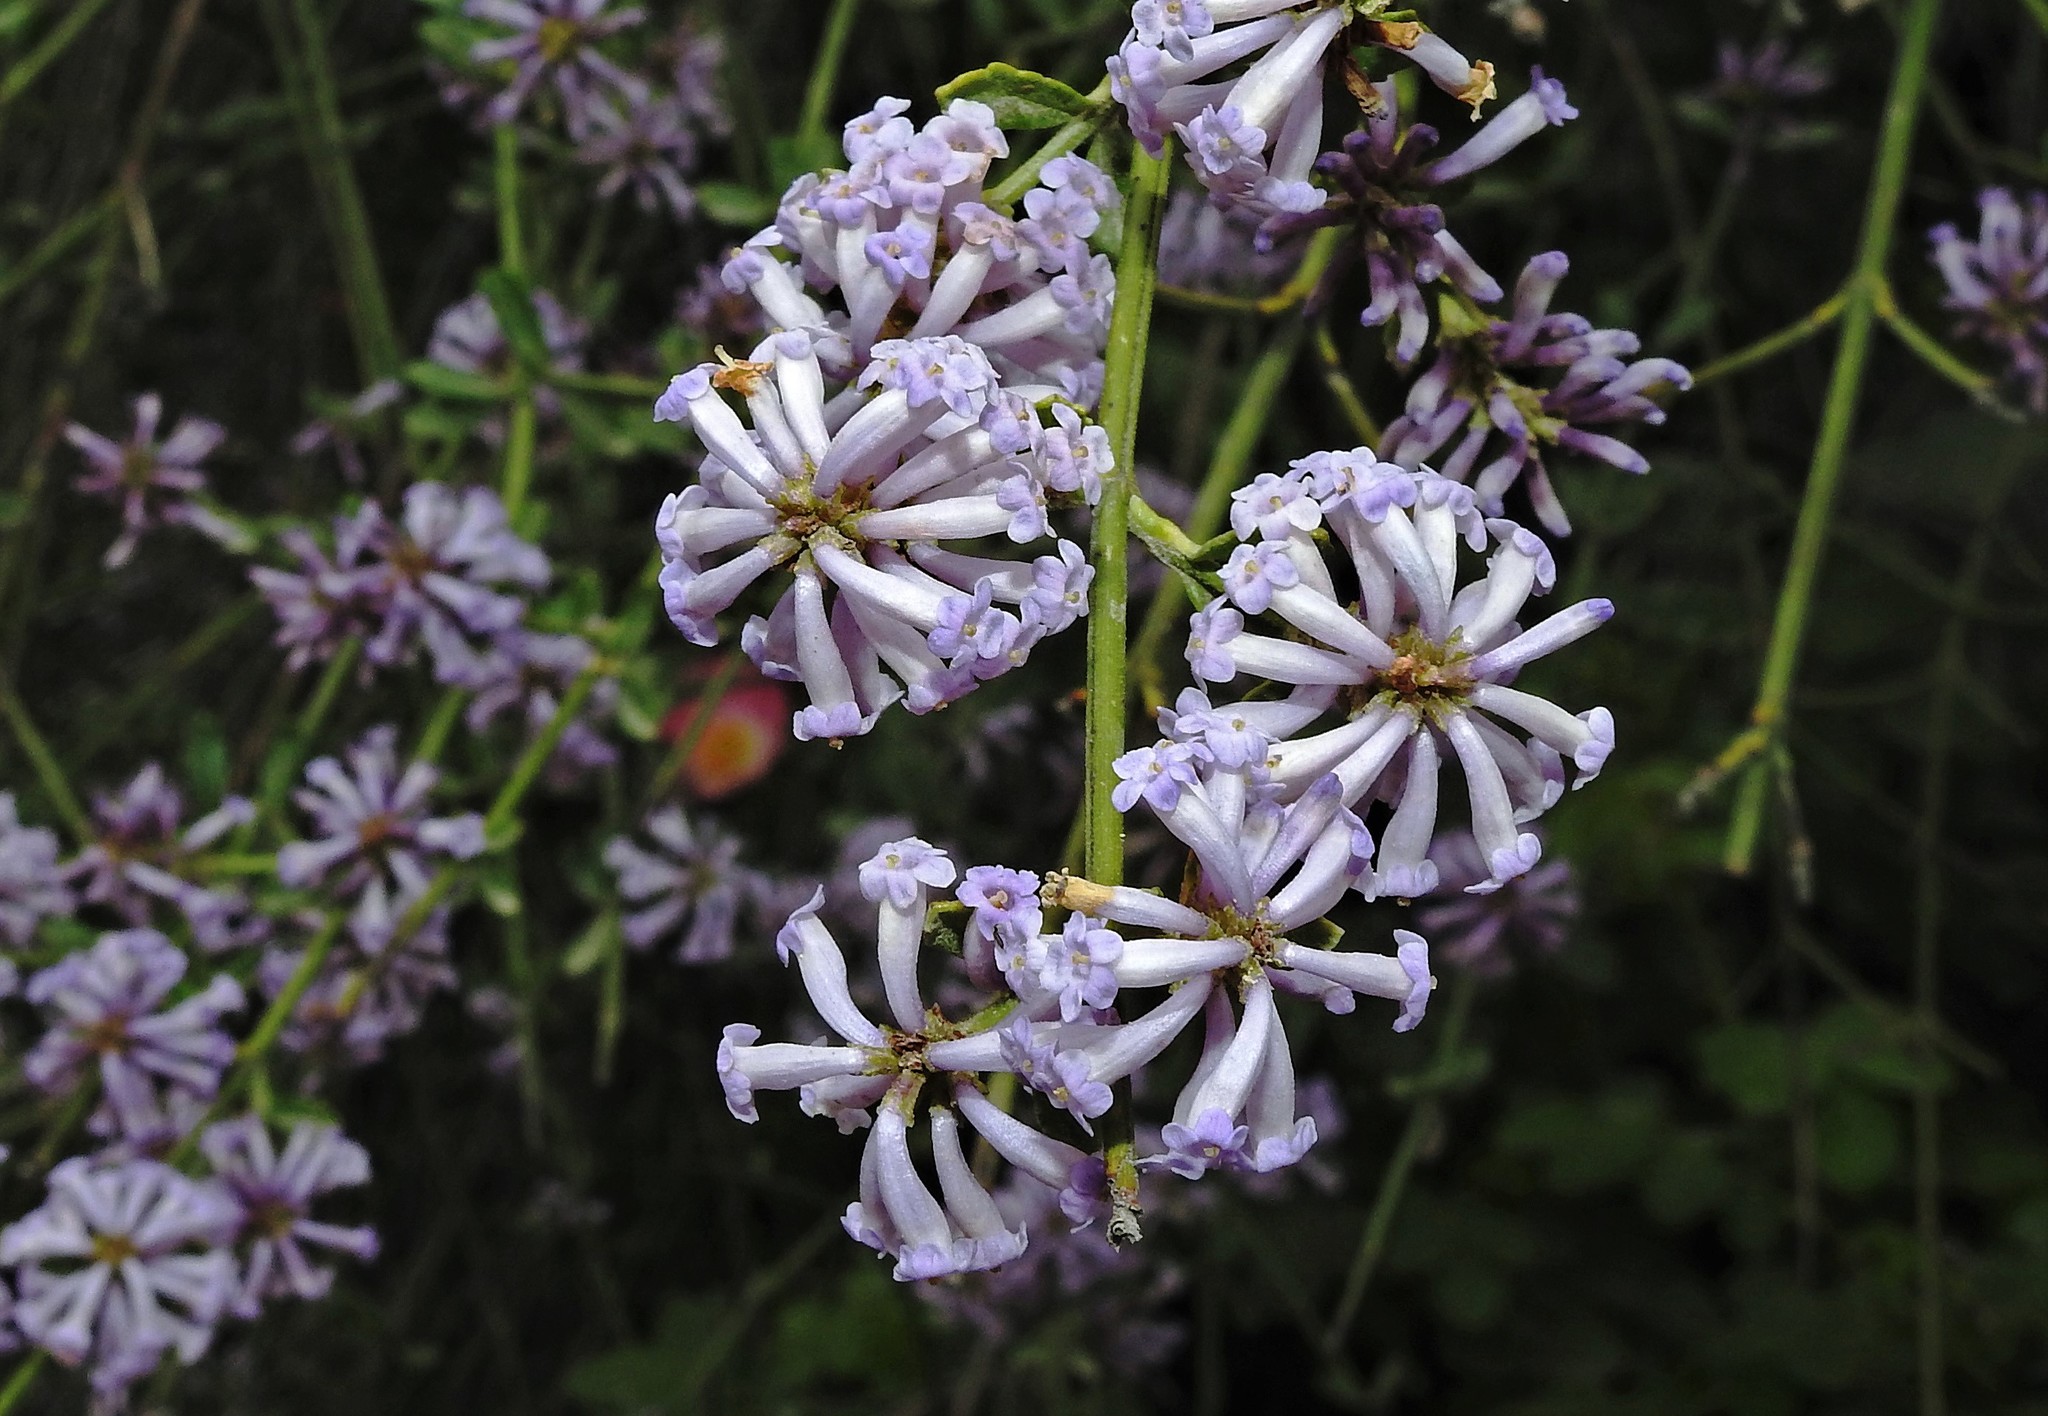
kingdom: Plantae
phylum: Tracheophyta
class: Magnoliopsida
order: Lamiales
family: Verbenaceae
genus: Diostea
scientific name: Diostea juncea
